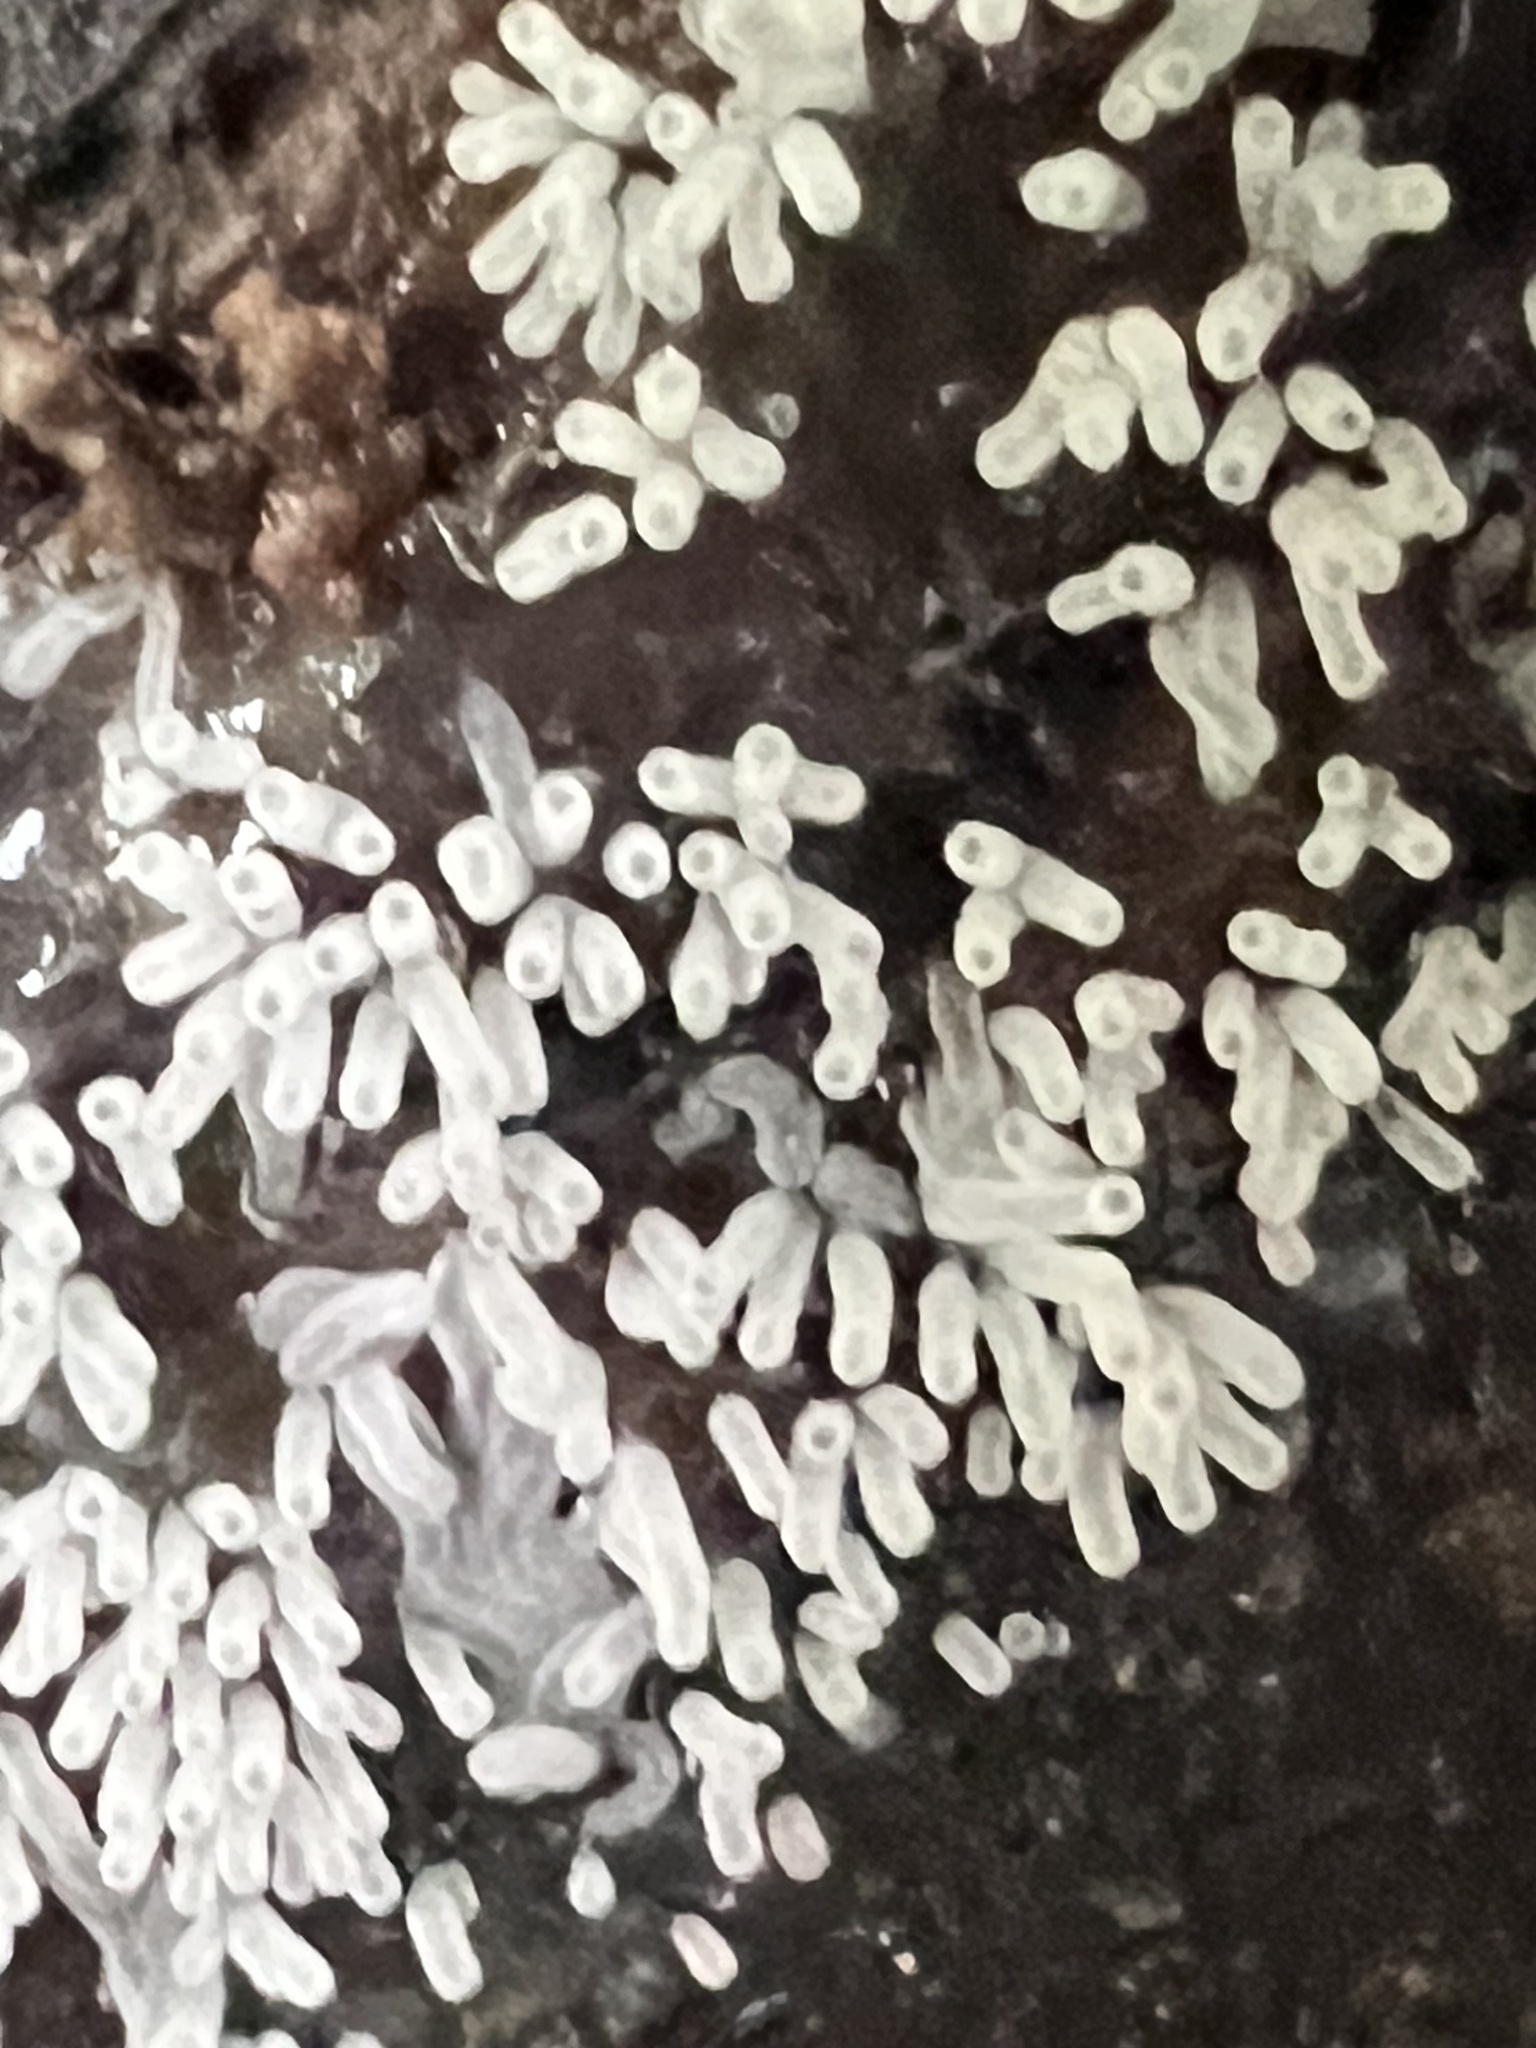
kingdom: Protozoa
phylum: Mycetozoa
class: Protosteliomycetes
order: Ceratiomyxales
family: Ceratiomyxaceae
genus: Ceratiomyxa
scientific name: Ceratiomyxa fruticulosa
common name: Honeycomb coral slime mold
